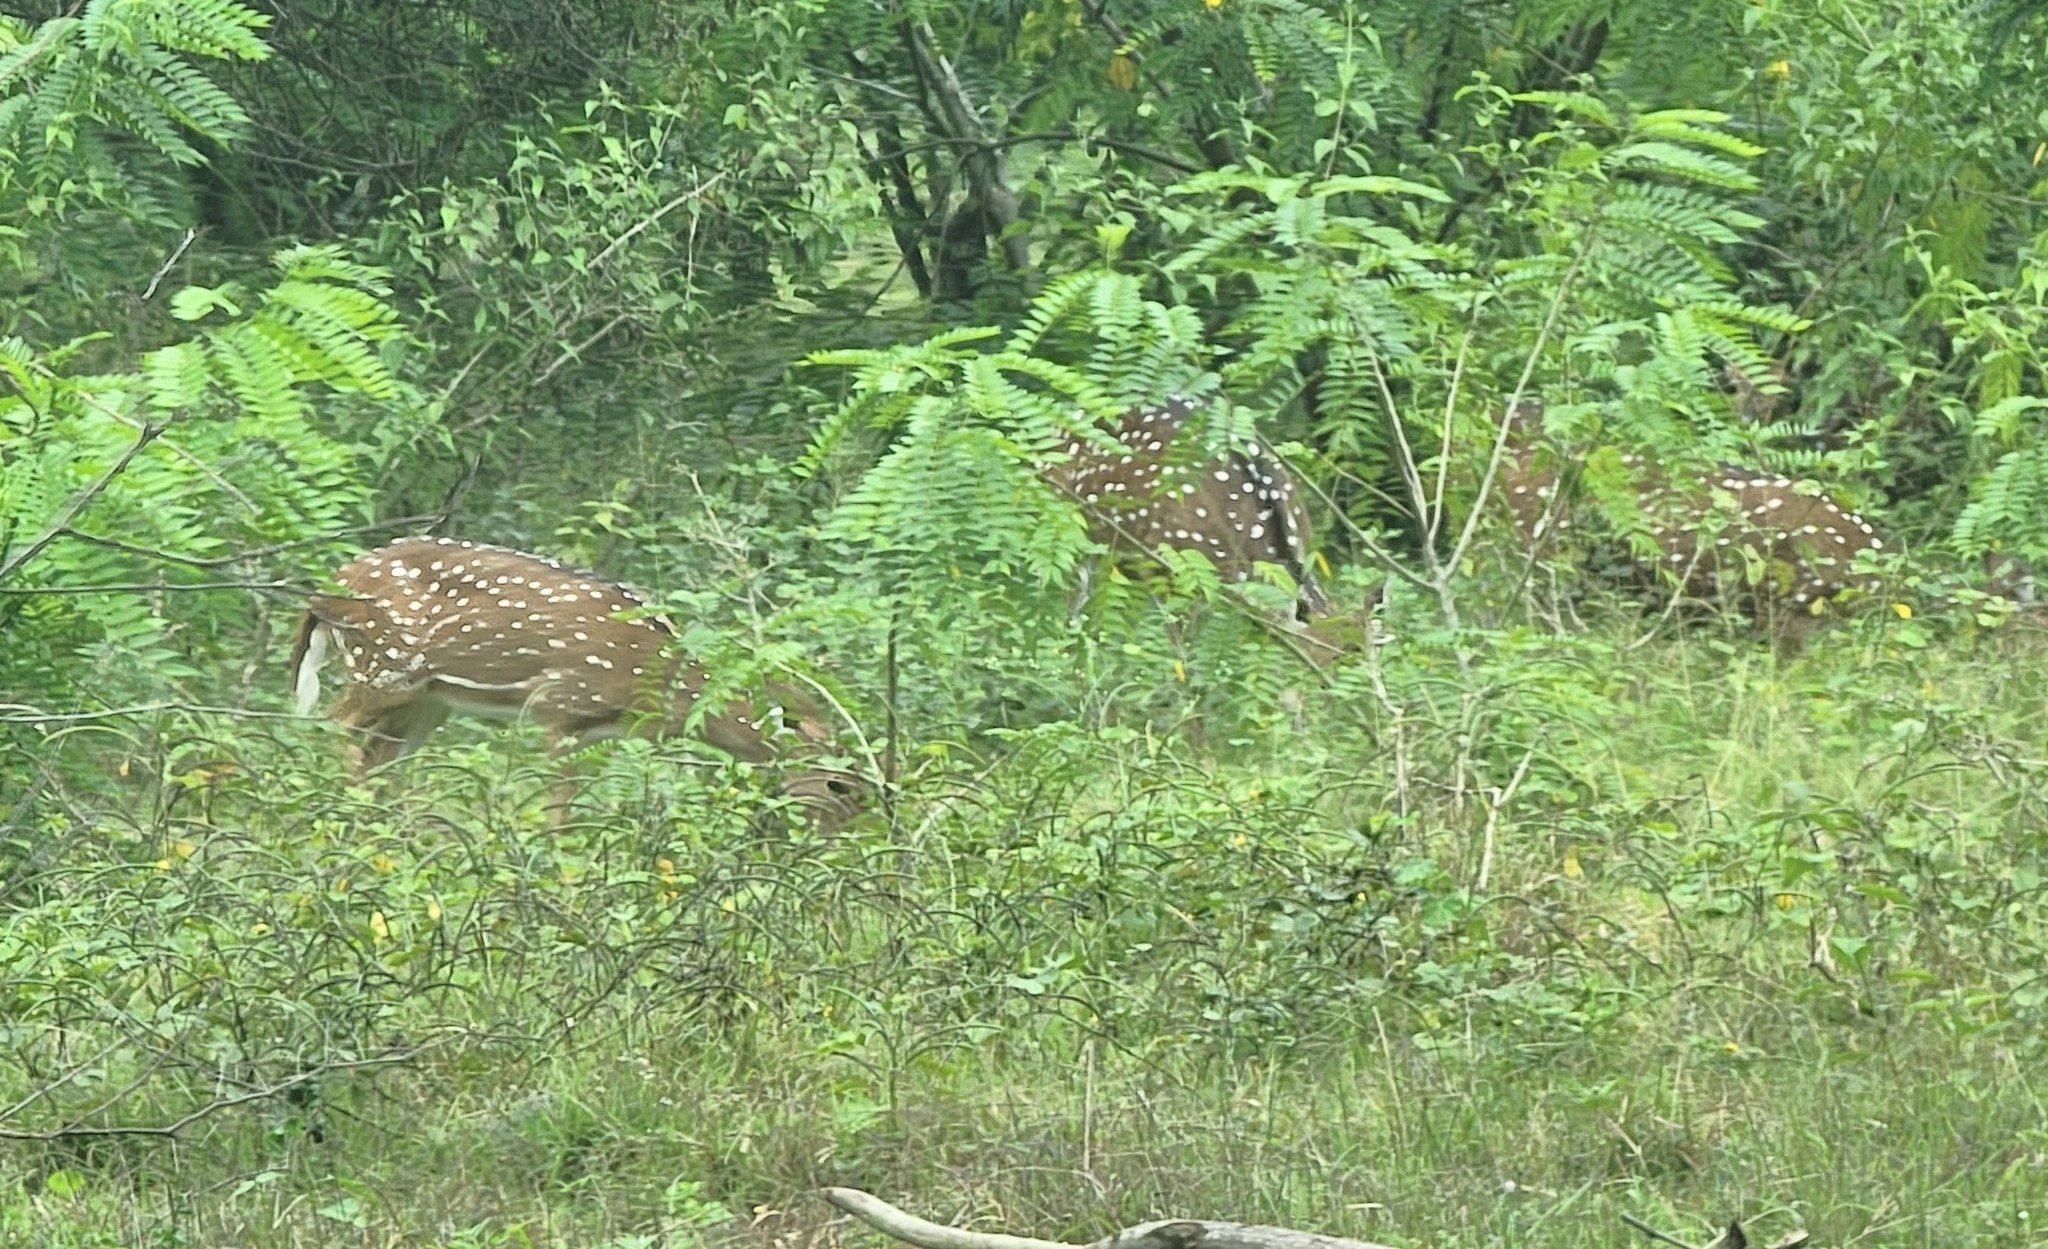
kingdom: Animalia
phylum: Chordata
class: Mammalia
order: Artiodactyla
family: Cervidae
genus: Axis
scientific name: Axis axis
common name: Chital
